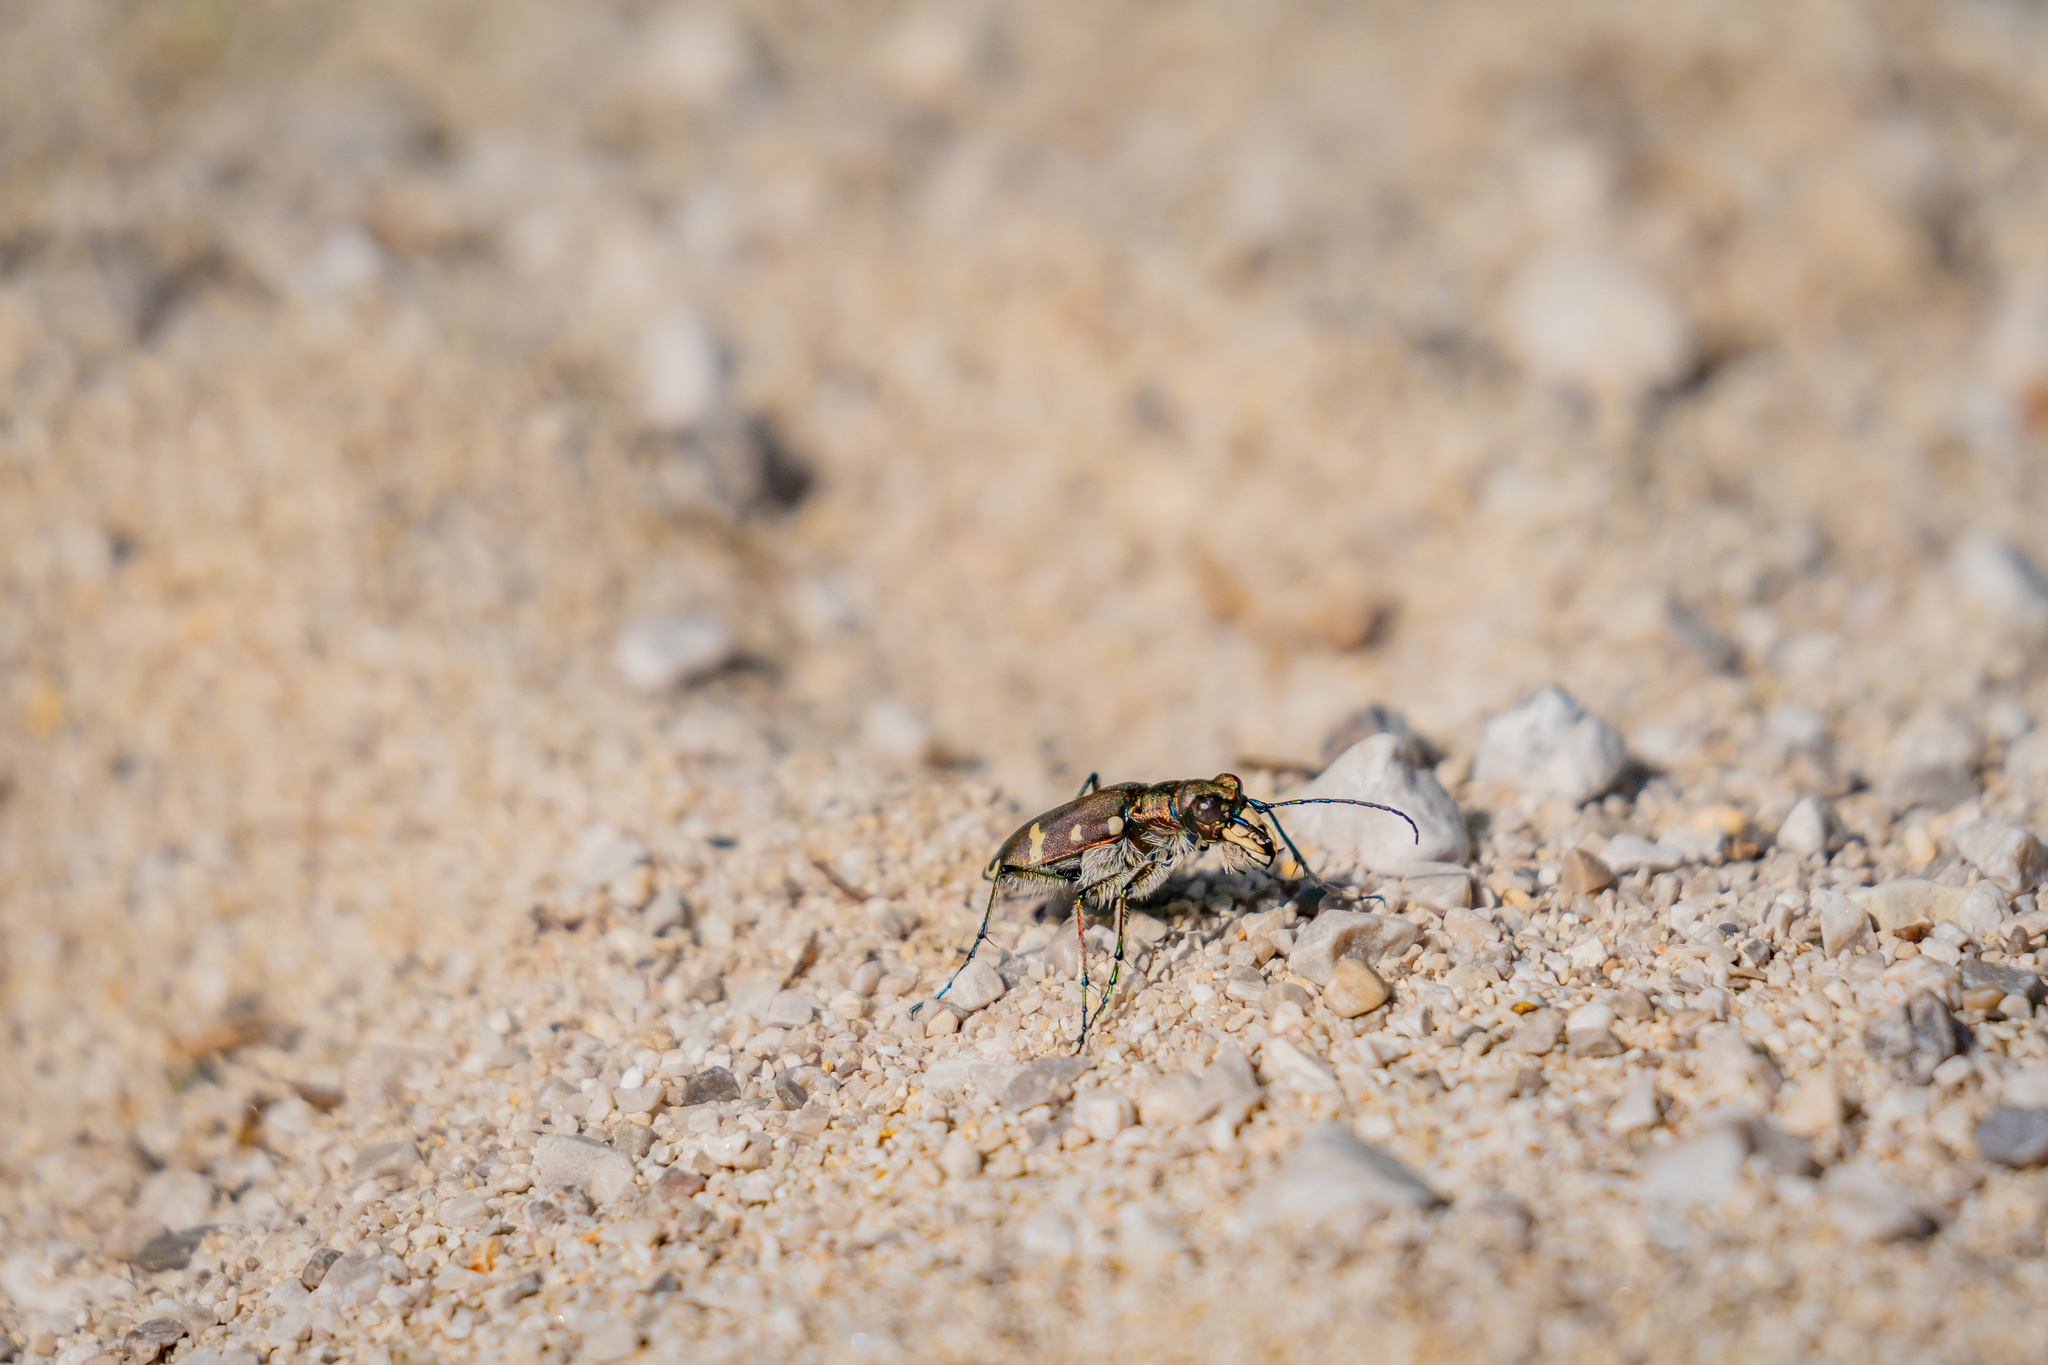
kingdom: Animalia
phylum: Arthropoda
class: Insecta
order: Coleoptera
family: Carabidae
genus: Cicindela
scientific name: Cicindela hybrida
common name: Northern dune tiger beetle
